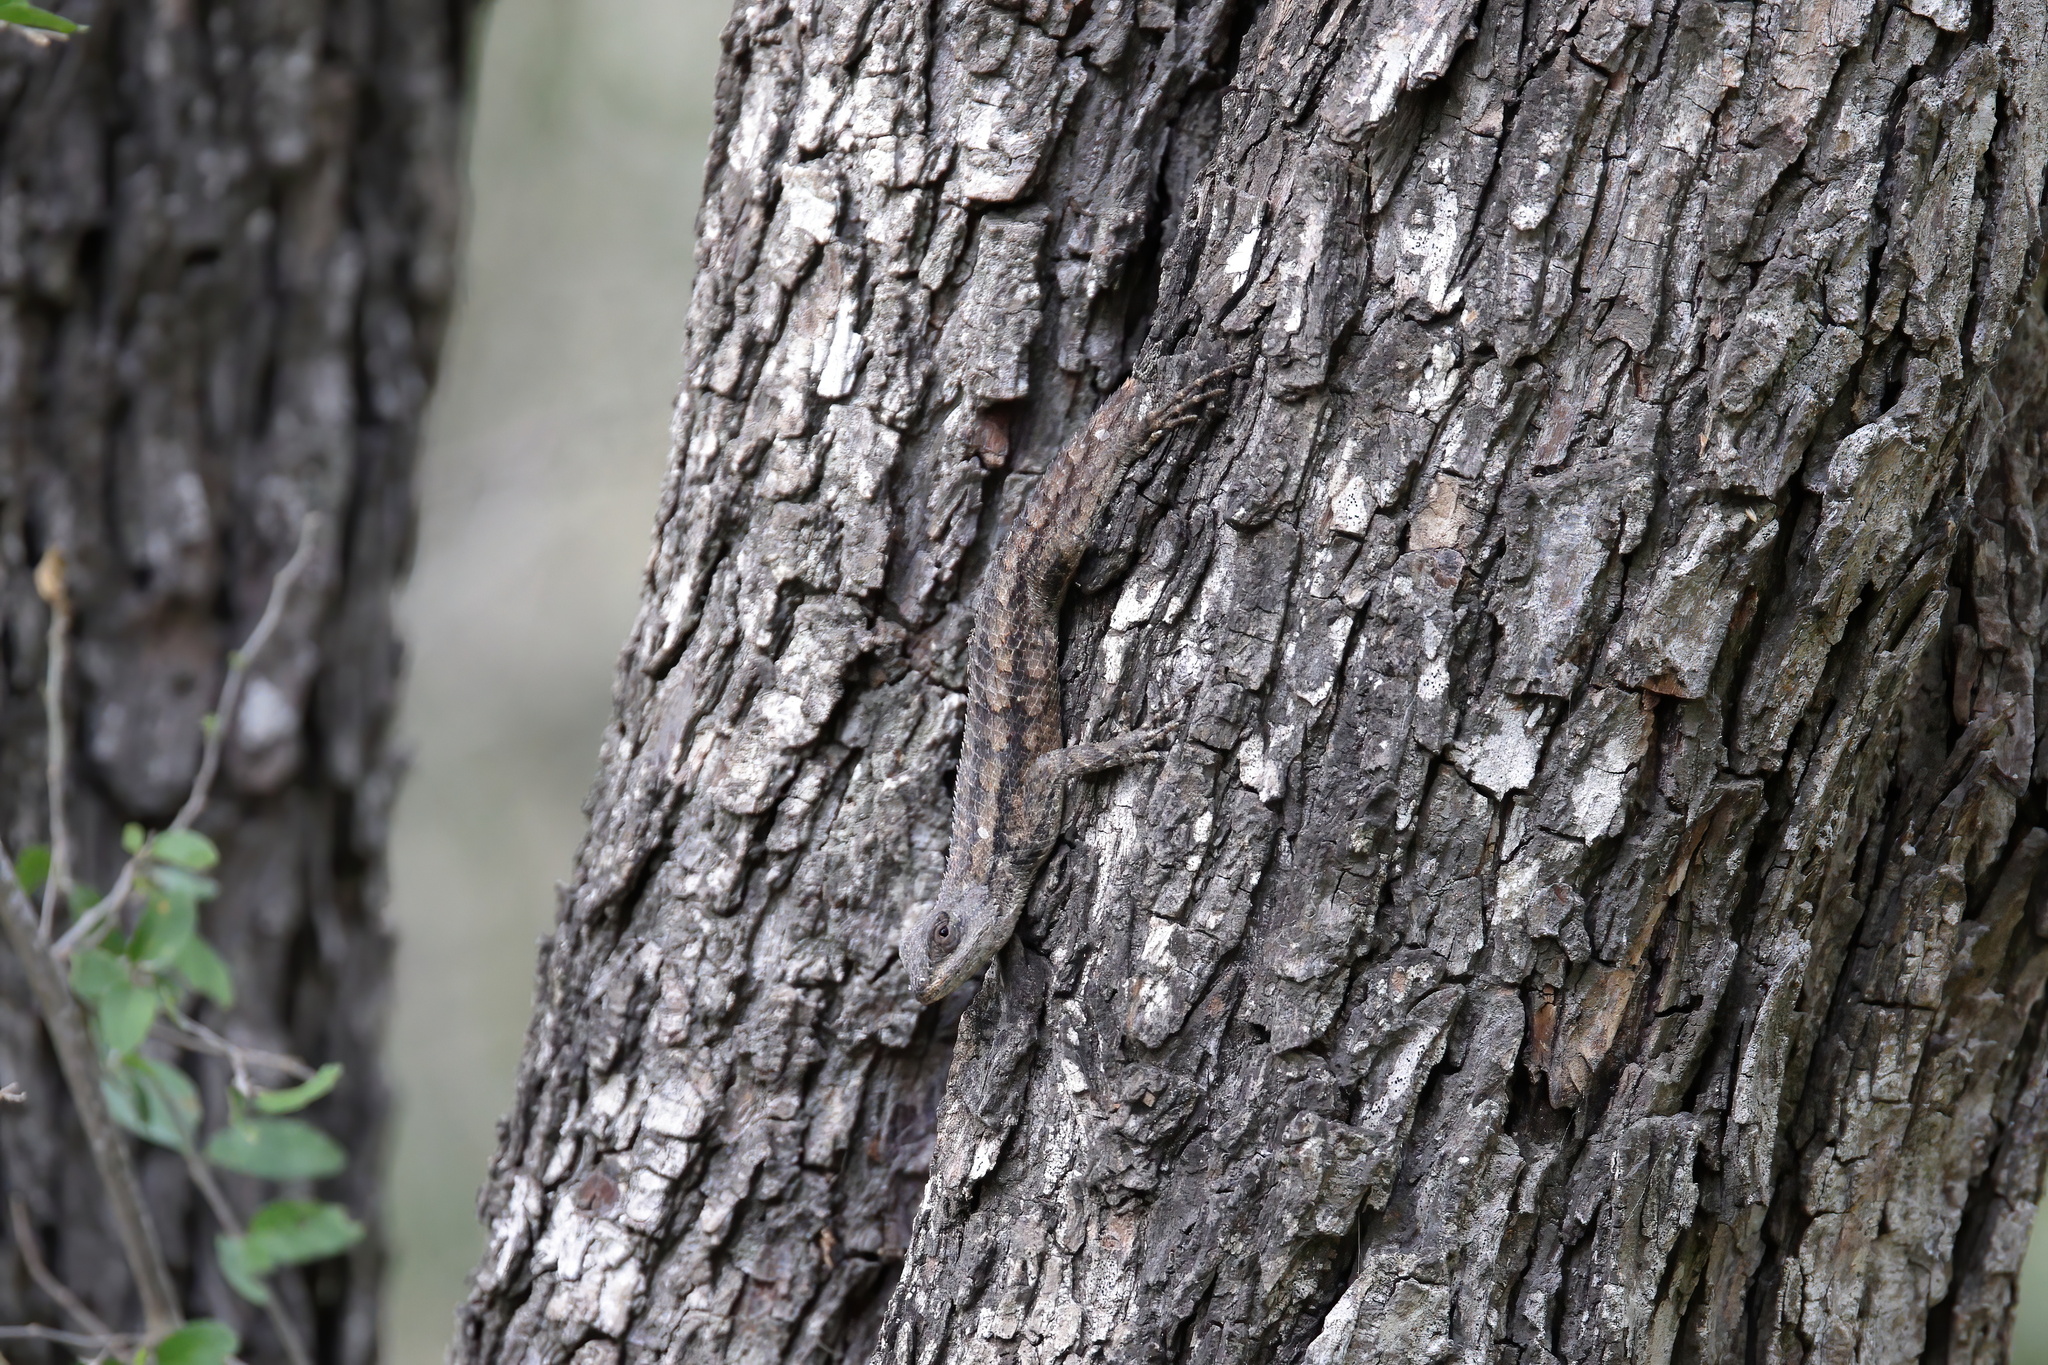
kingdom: Animalia
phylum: Chordata
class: Squamata
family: Phrynosomatidae
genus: Sceloporus
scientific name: Sceloporus olivaceus
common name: Texas spiny lizard
